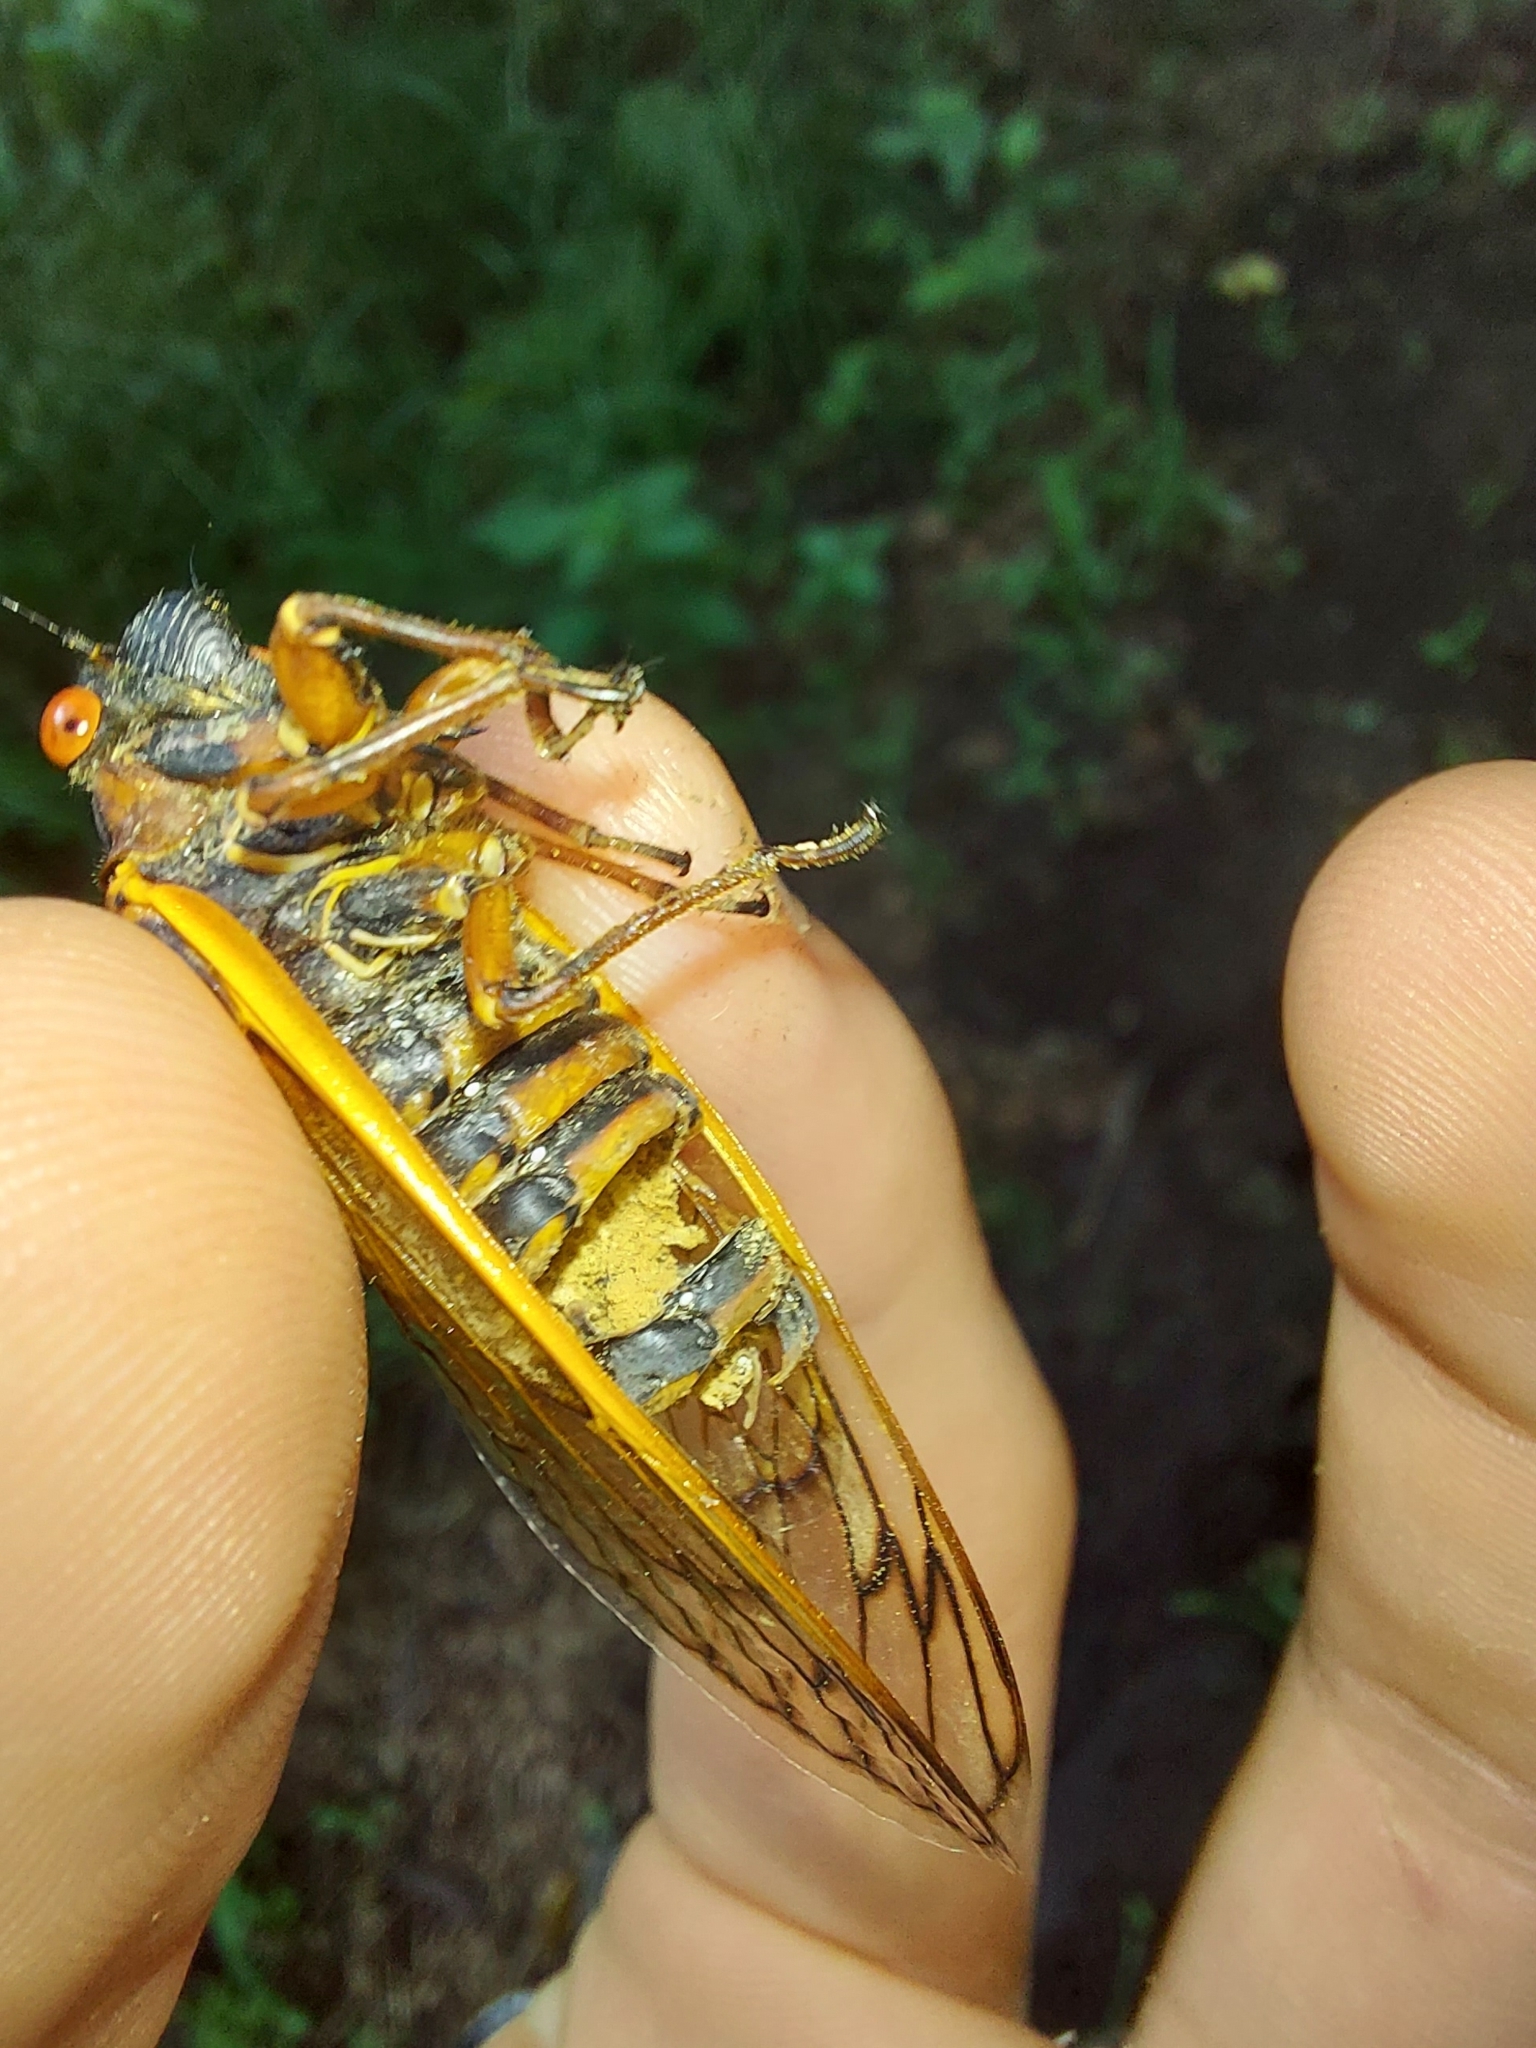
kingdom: Fungi
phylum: Entomophthoromycota
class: Entomophthoromycetes
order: Entomophthorales
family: Entomophthoraceae
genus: Massospora
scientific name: Massospora cicadina
